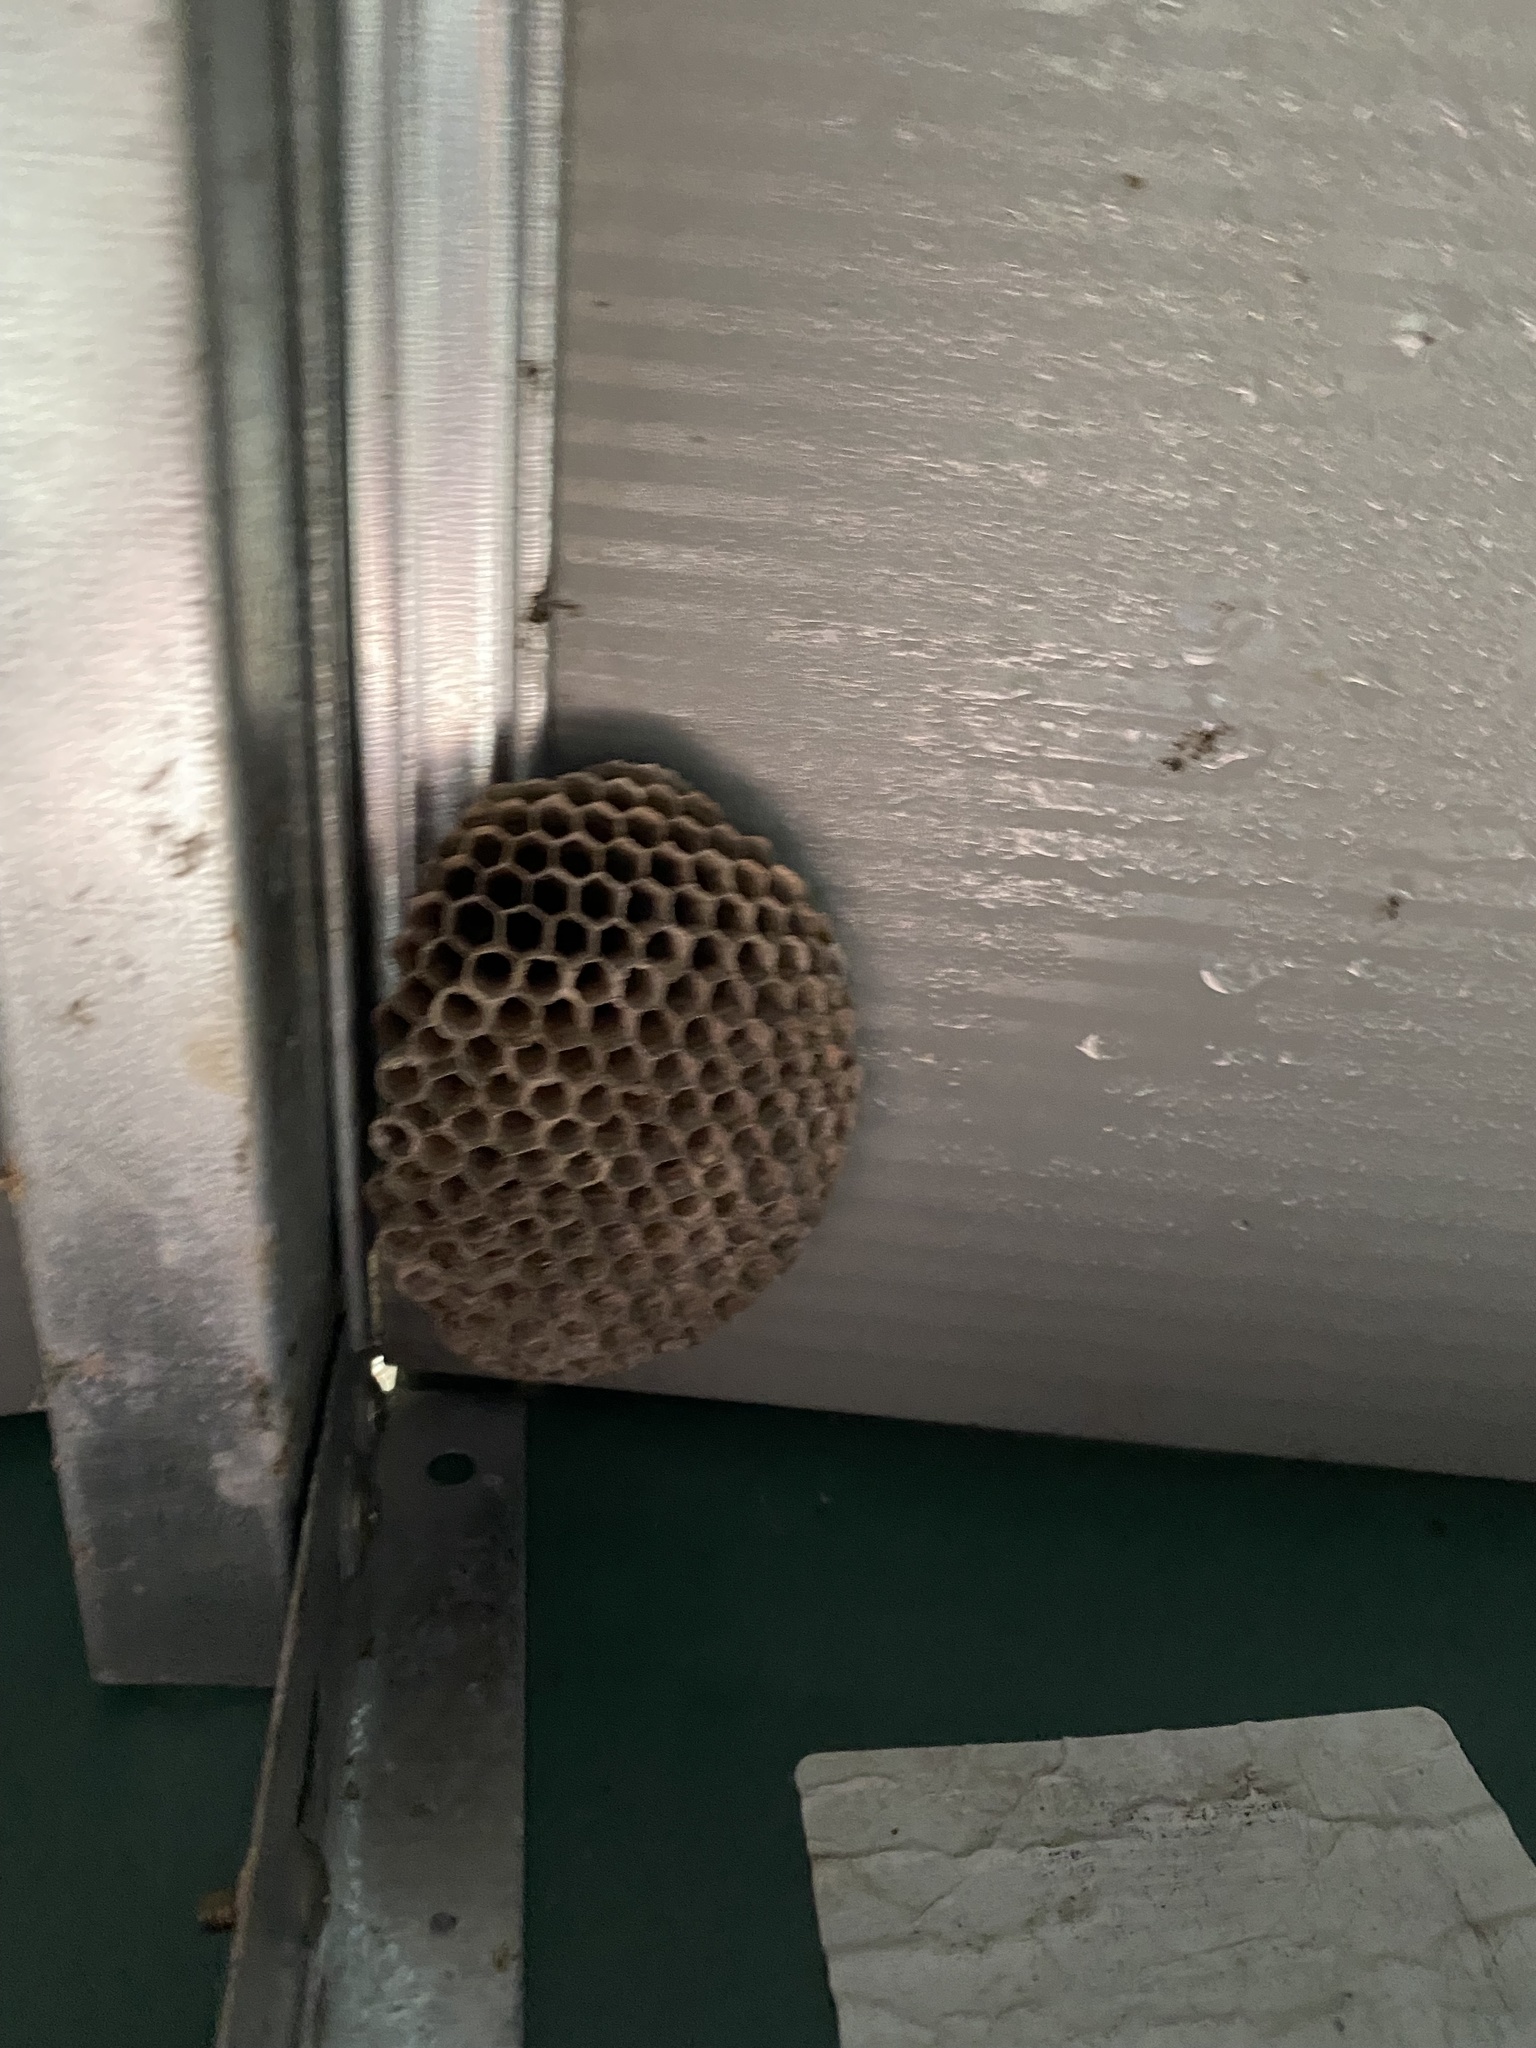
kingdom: Animalia
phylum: Arthropoda
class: Insecta
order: Hymenoptera
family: Eumenidae
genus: Polistes
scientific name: Polistes
